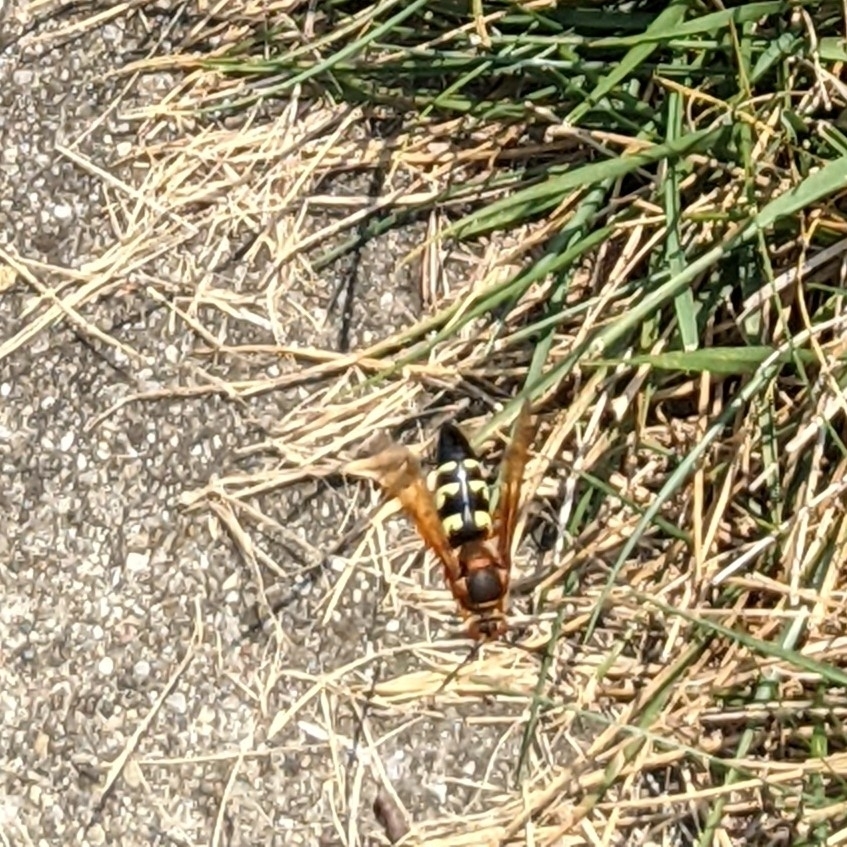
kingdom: Animalia
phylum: Arthropoda
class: Insecta
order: Hymenoptera
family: Crabronidae
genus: Sphecius
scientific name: Sphecius speciosus
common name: Cicada killer
